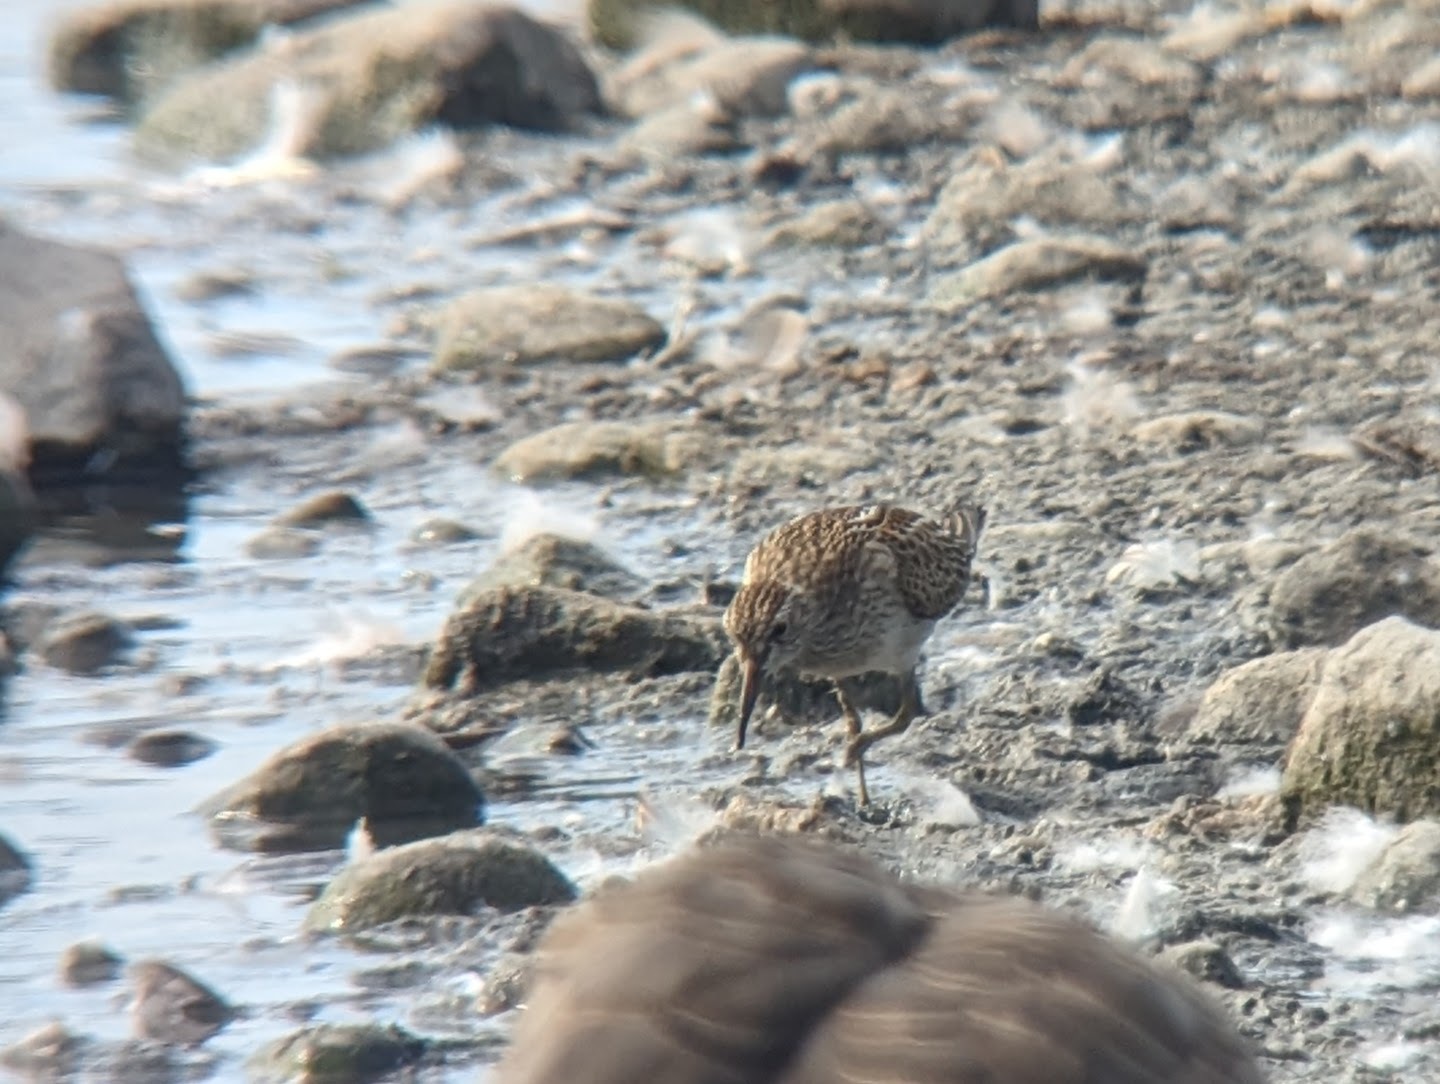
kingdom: Animalia
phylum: Chordata
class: Aves
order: Charadriiformes
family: Scolopacidae
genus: Calidris
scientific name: Calidris melanotos
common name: Pectoral sandpiper
